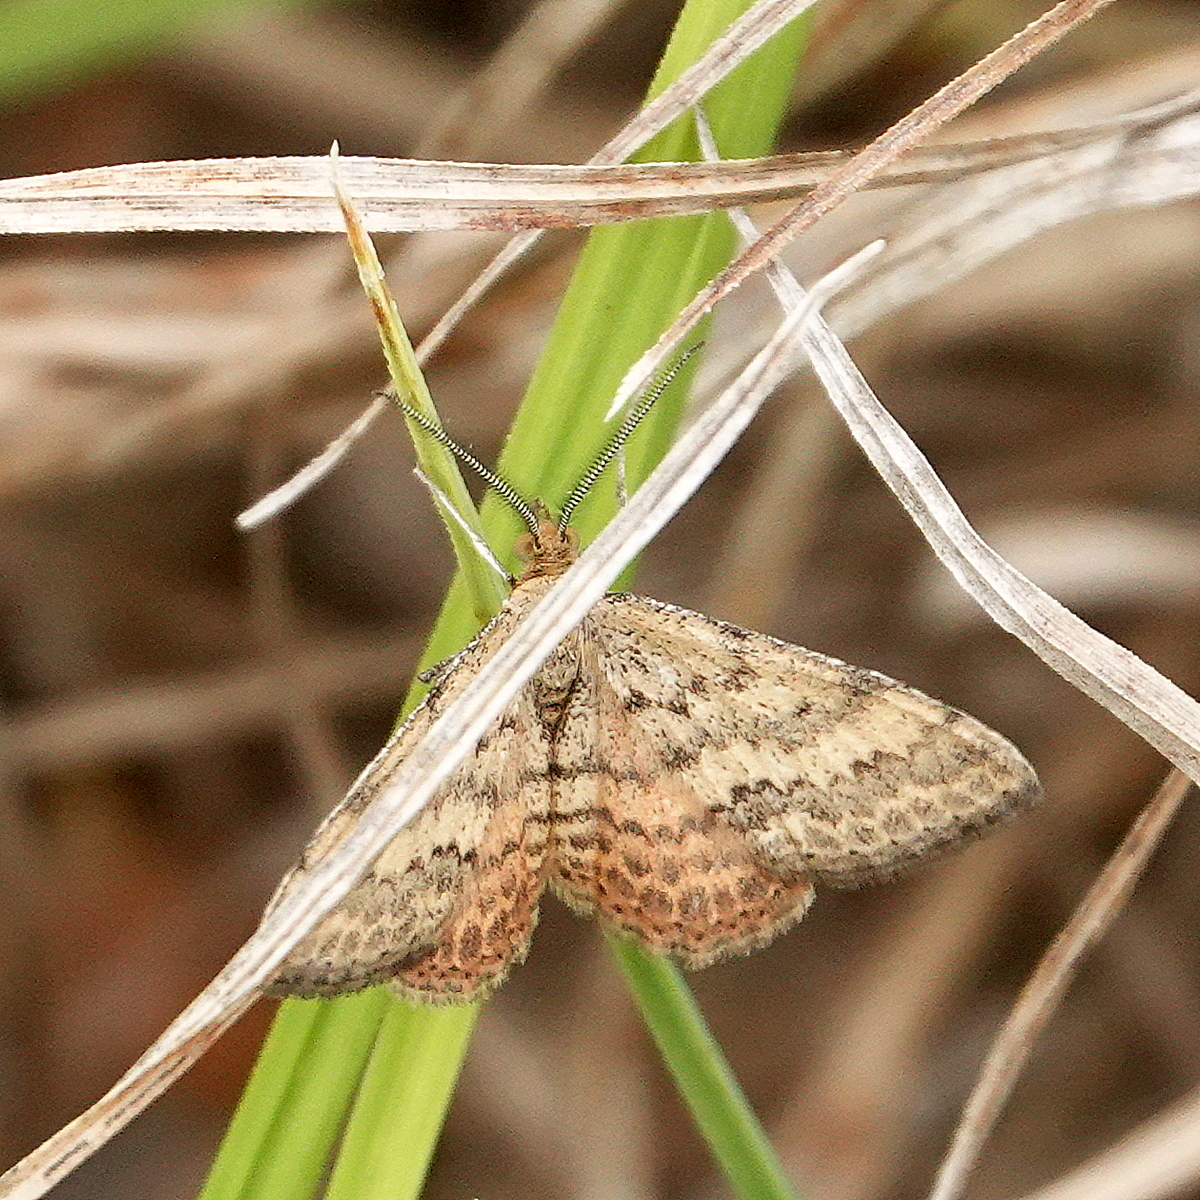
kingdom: Animalia
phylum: Arthropoda
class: Insecta
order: Lepidoptera
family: Geometridae
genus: Scopula
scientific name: Scopula rubraria
